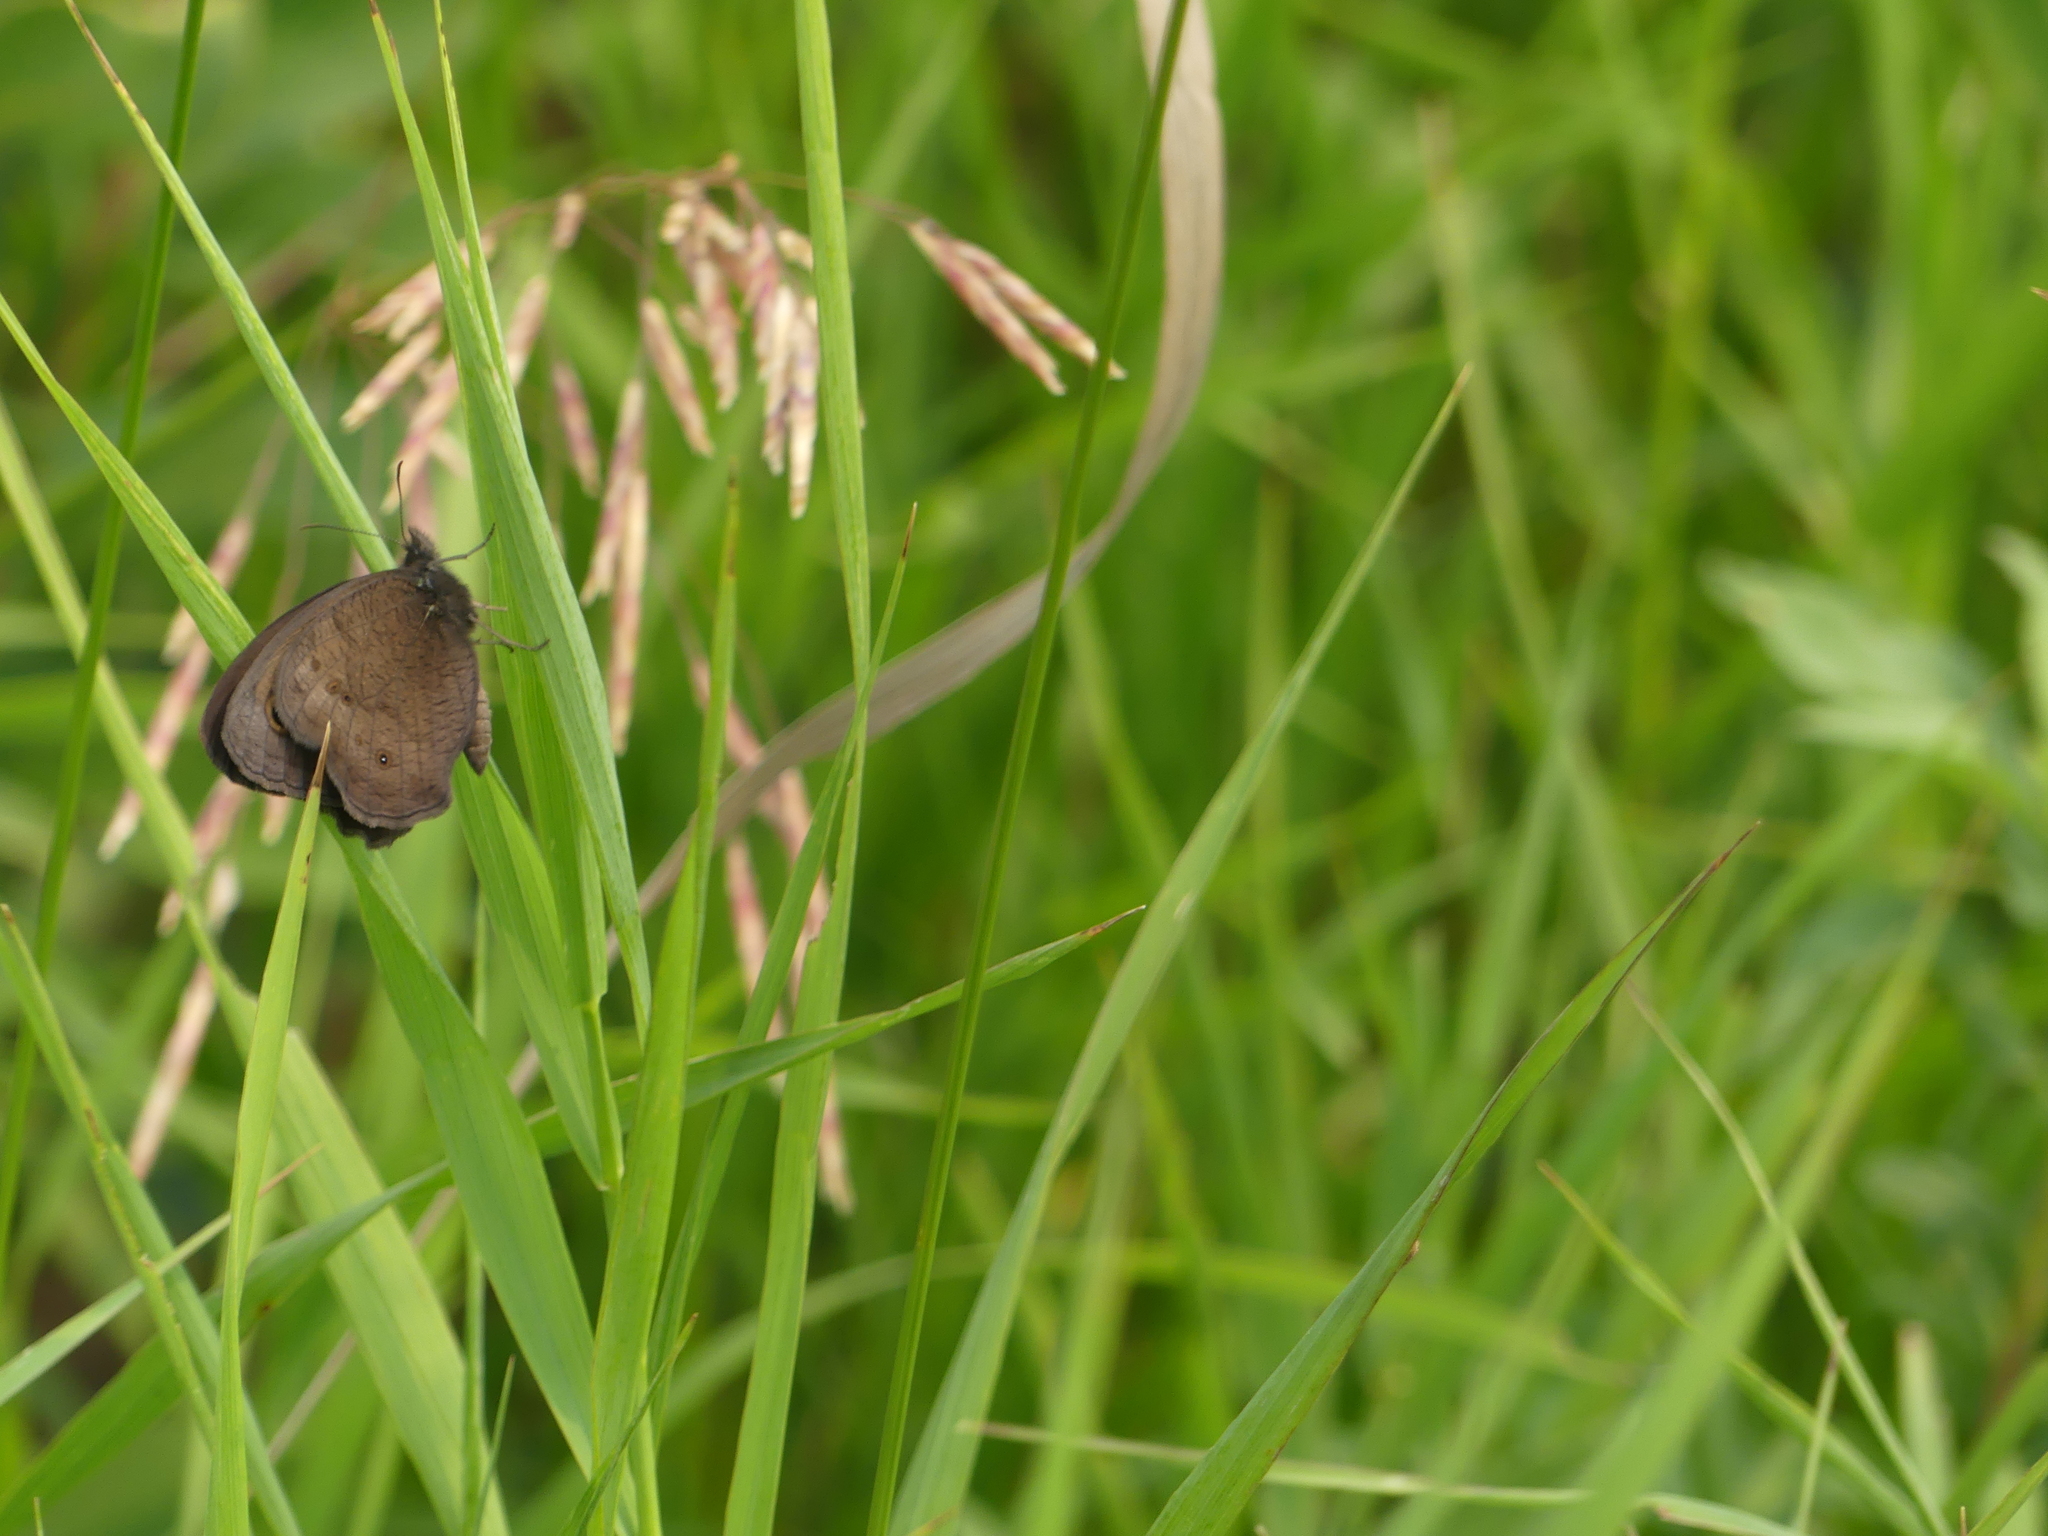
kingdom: Animalia
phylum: Arthropoda
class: Insecta
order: Lepidoptera
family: Nymphalidae
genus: Cercyonis
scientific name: Cercyonis pegala
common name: Common wood-nymph
